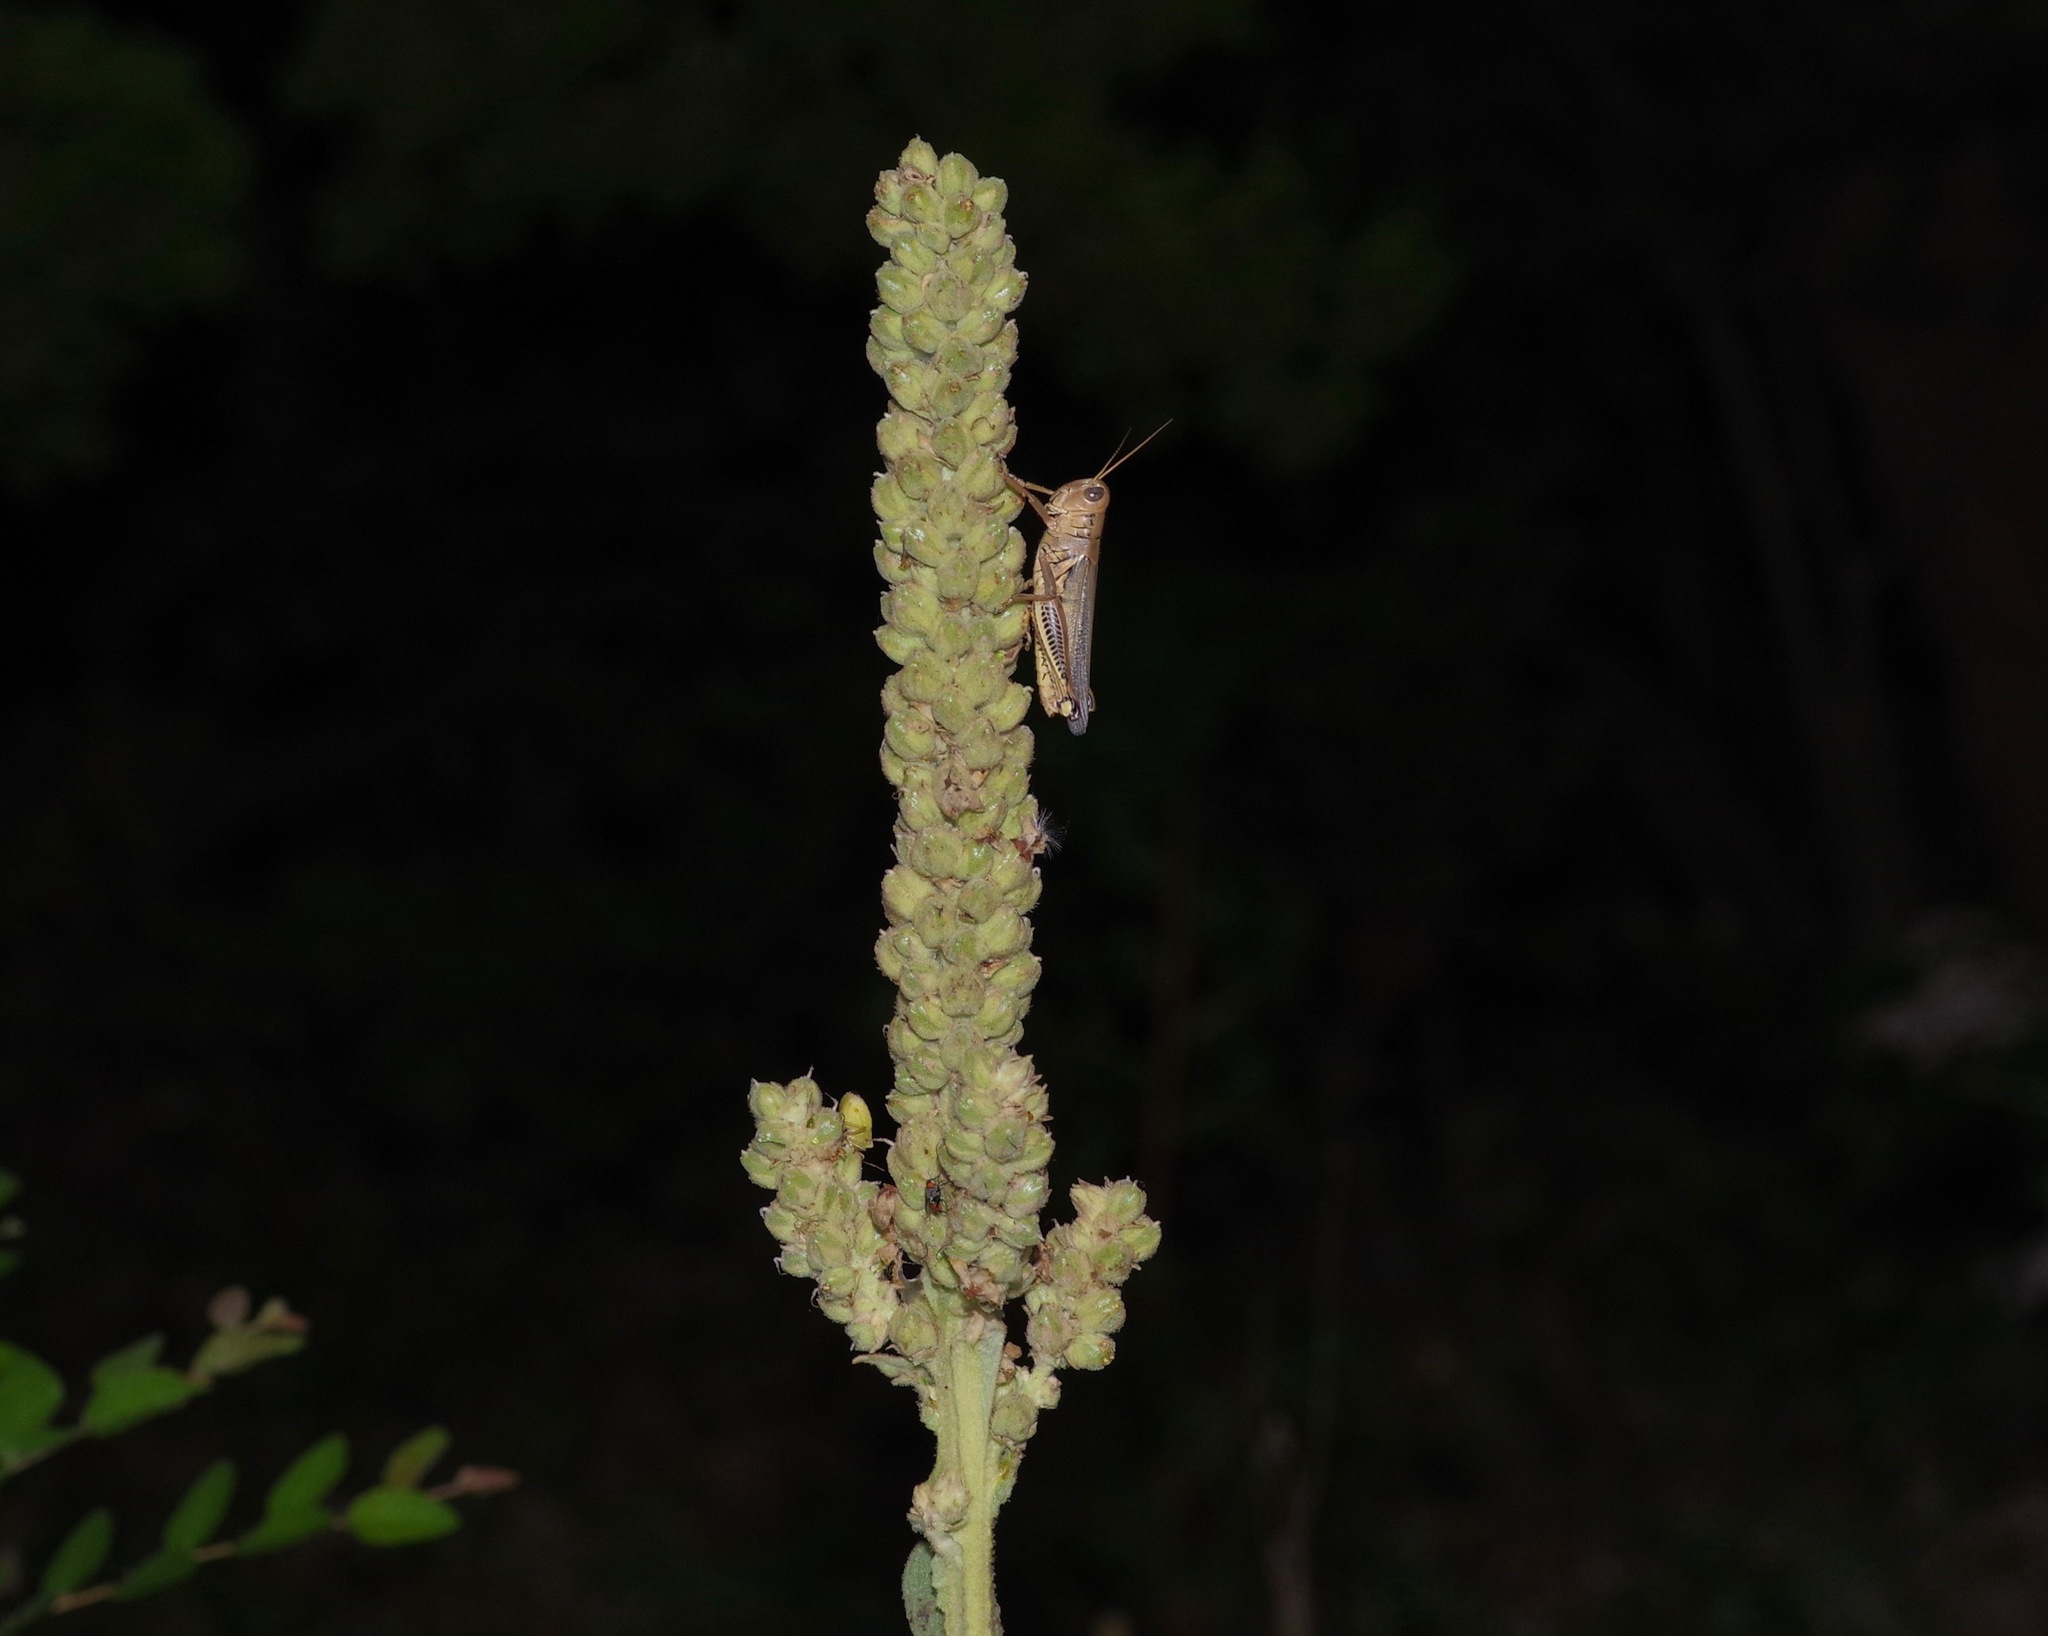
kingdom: Animalia
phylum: Arthropoda
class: Insecta
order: Orthoptera
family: Acrididae
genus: Melanoplus
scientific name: Melanoplus differentialis
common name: Differential grasshopper
